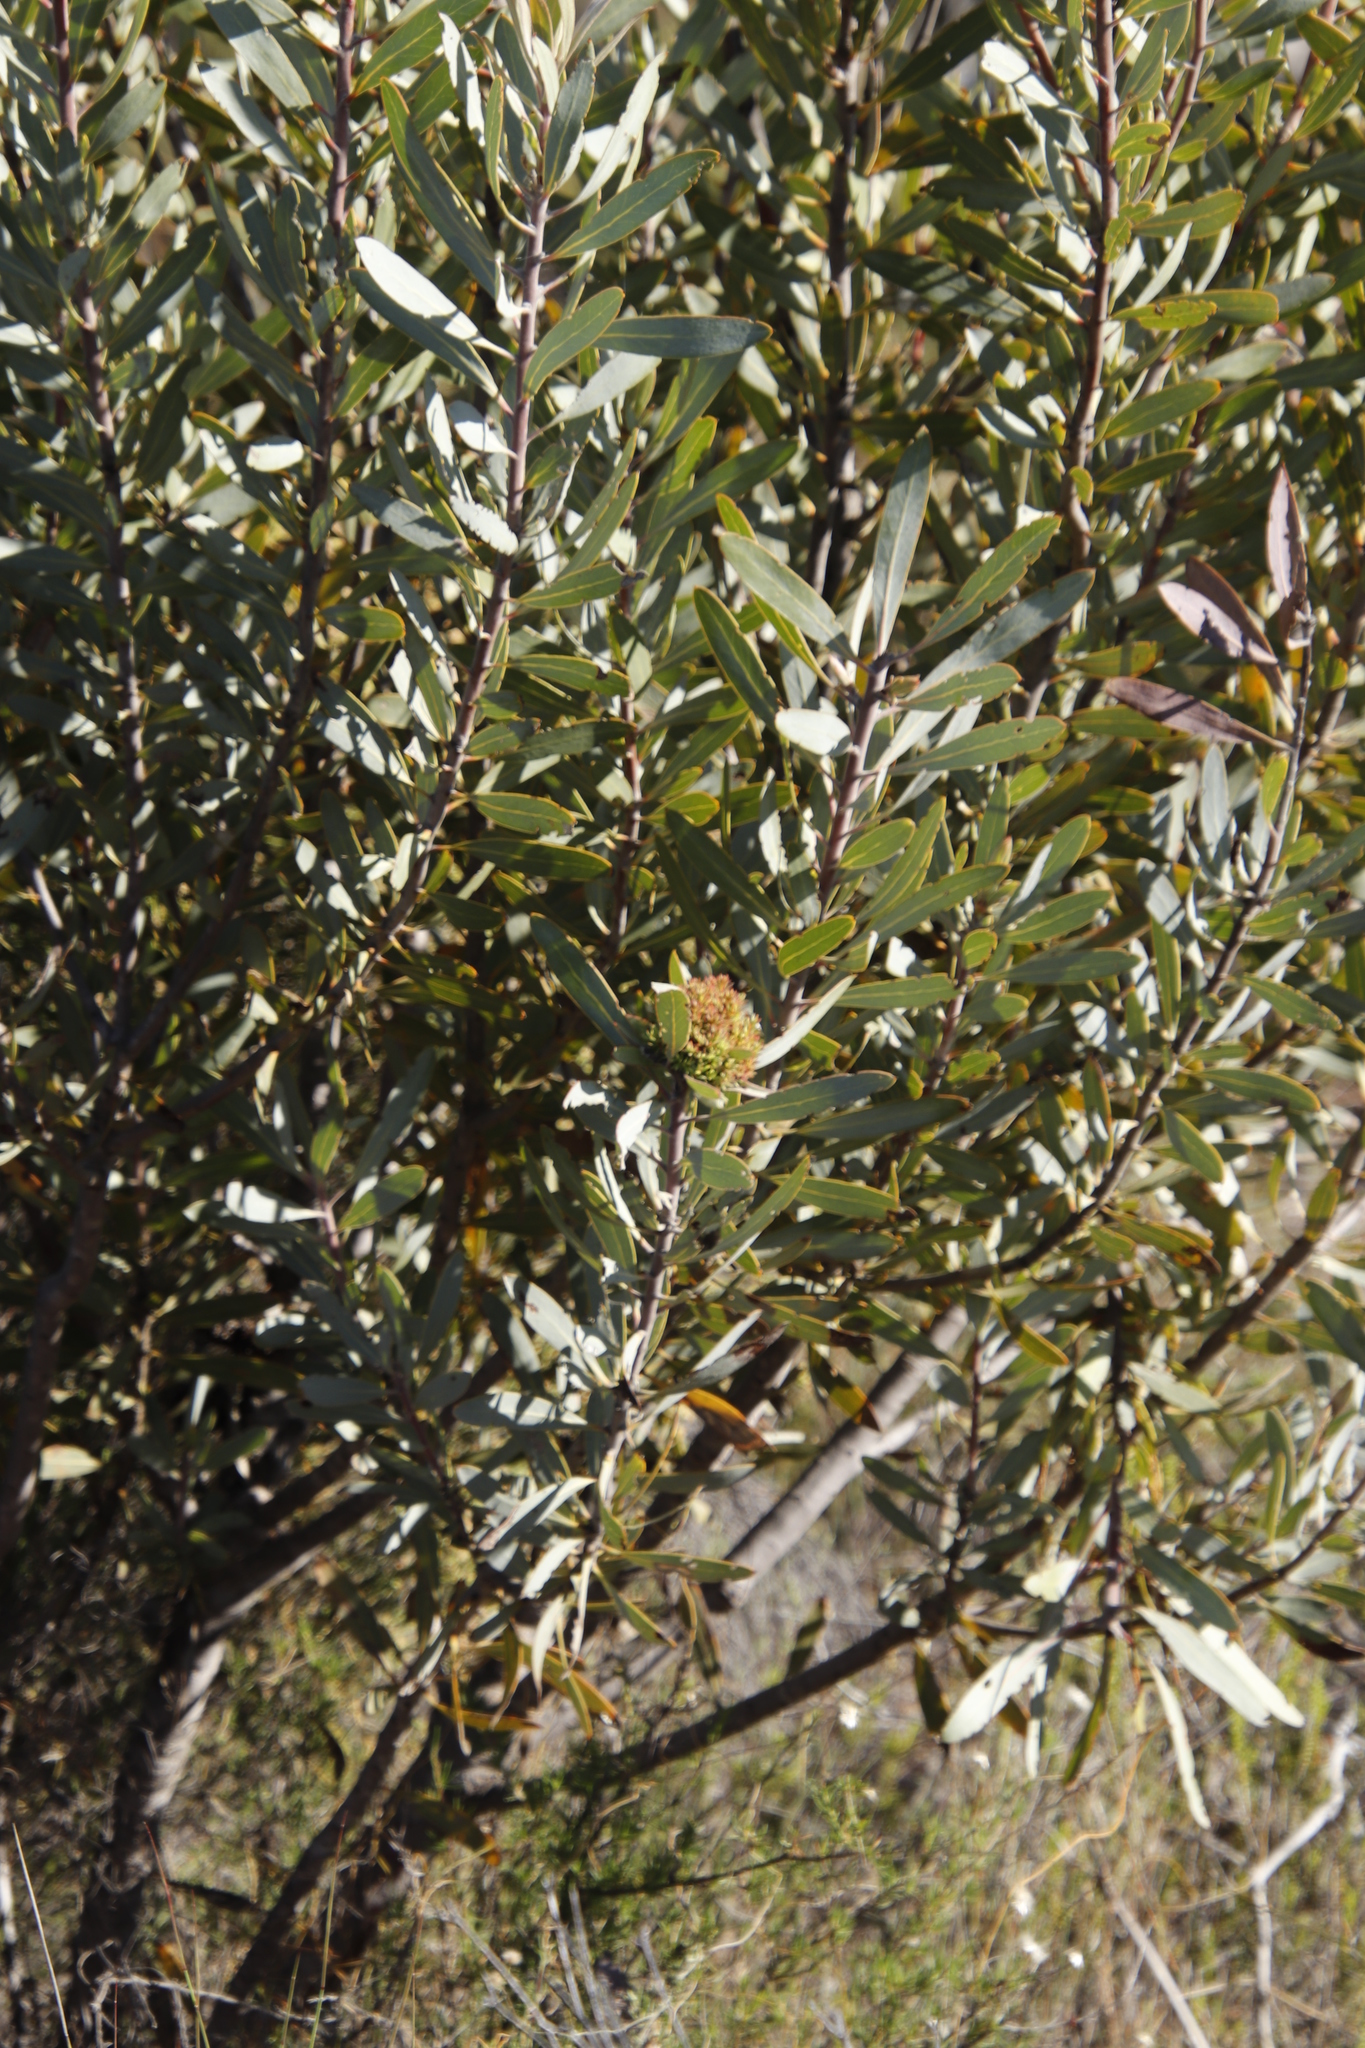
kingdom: Bacteria
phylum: Firmicutes
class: Bacilli
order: Acholeplasmatales
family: Acholeplasmataceae
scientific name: Acholeplasmataceae
